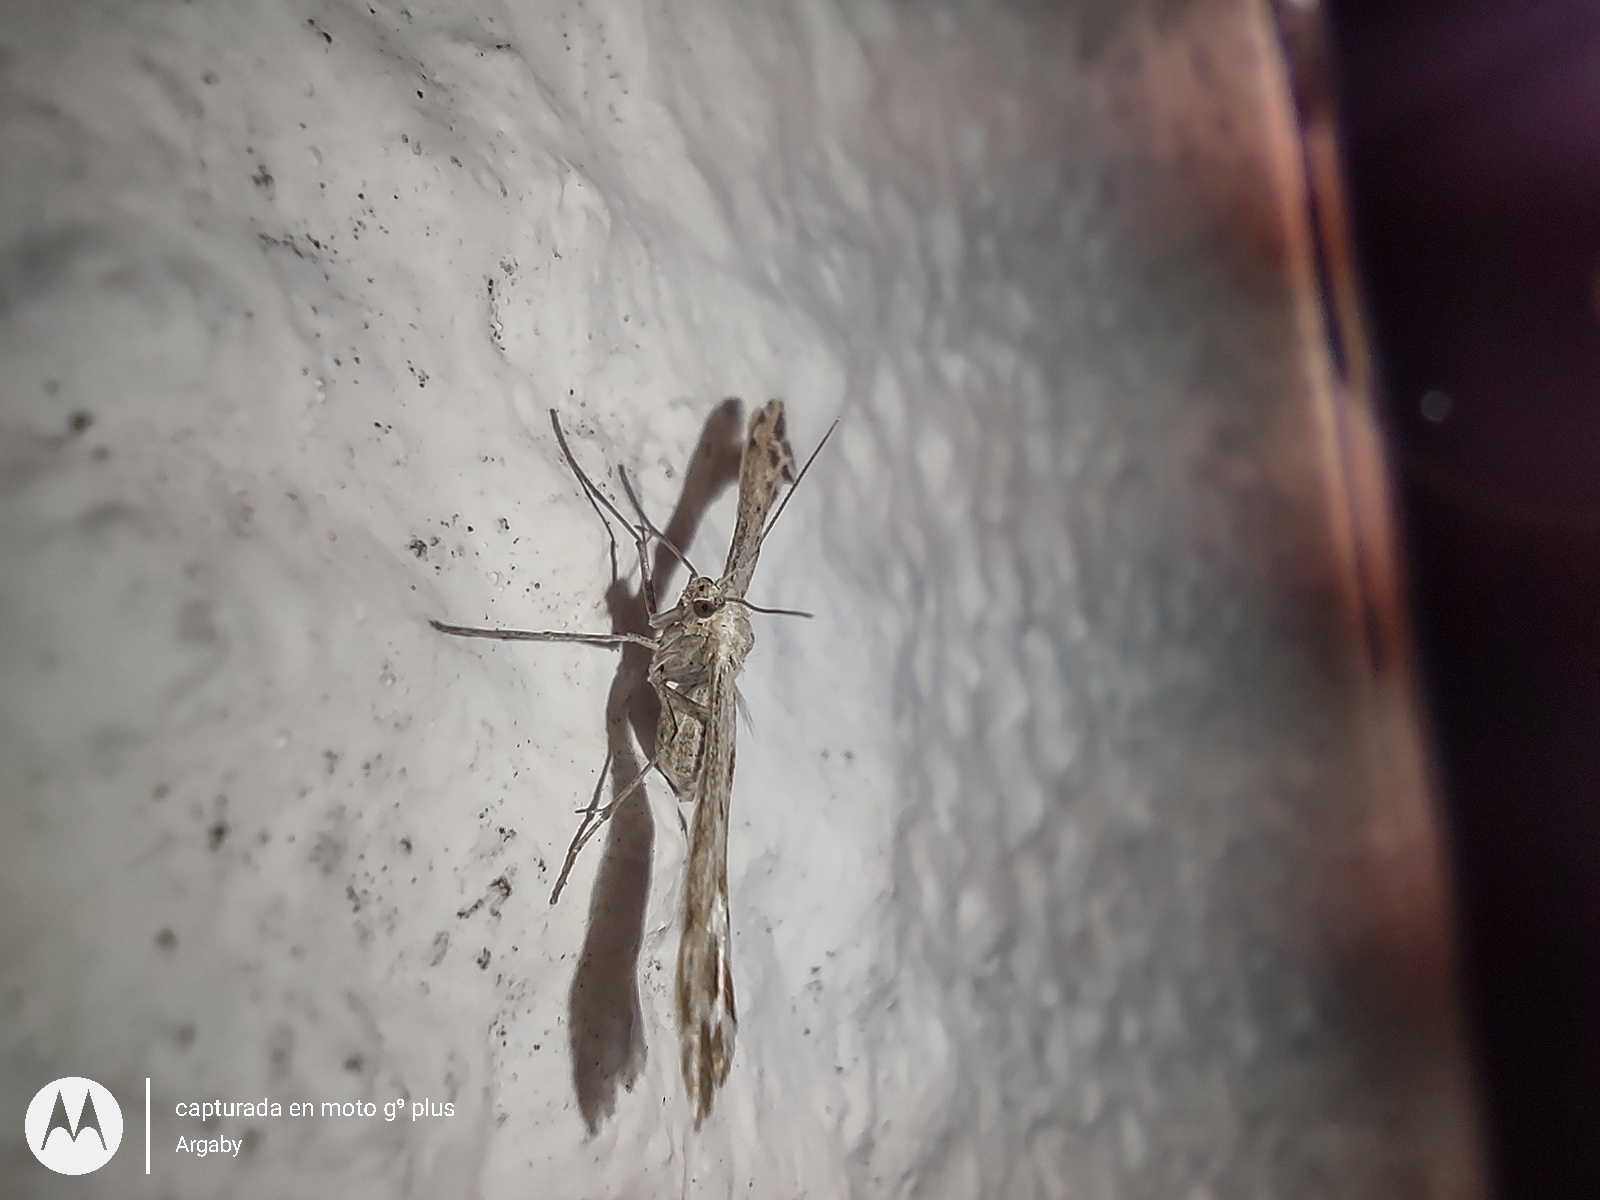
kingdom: Animalia
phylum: Arthropoda
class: Insecta
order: Lepidoptera
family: Pterophoridae
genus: Singularia
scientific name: Singularia alternaria
